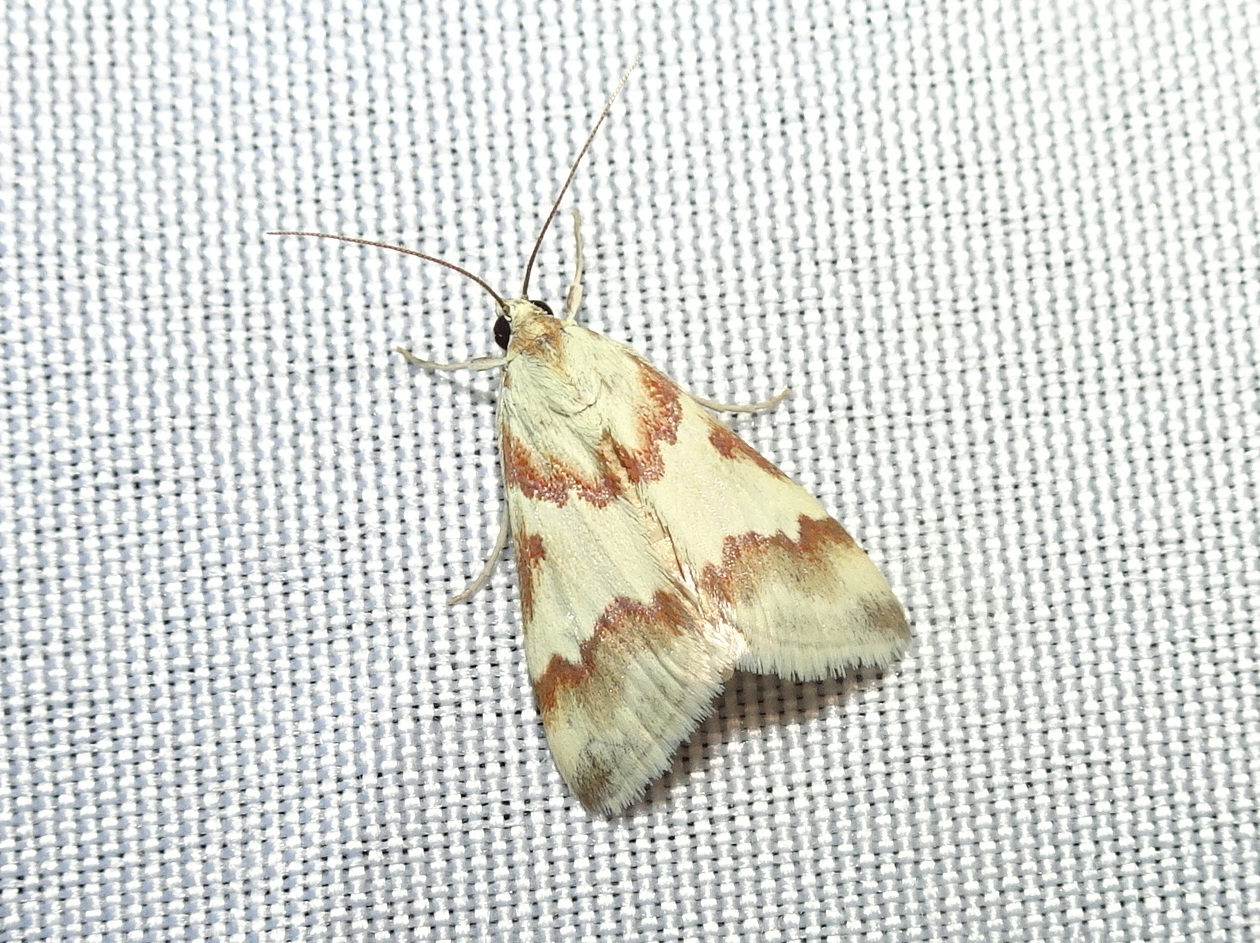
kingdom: Animalia
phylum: Arthropoda
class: Insecta
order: Lepidoptera
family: Crambidae
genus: Noctuelia
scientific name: Noctuelia Mimoschinia rufofascialis
